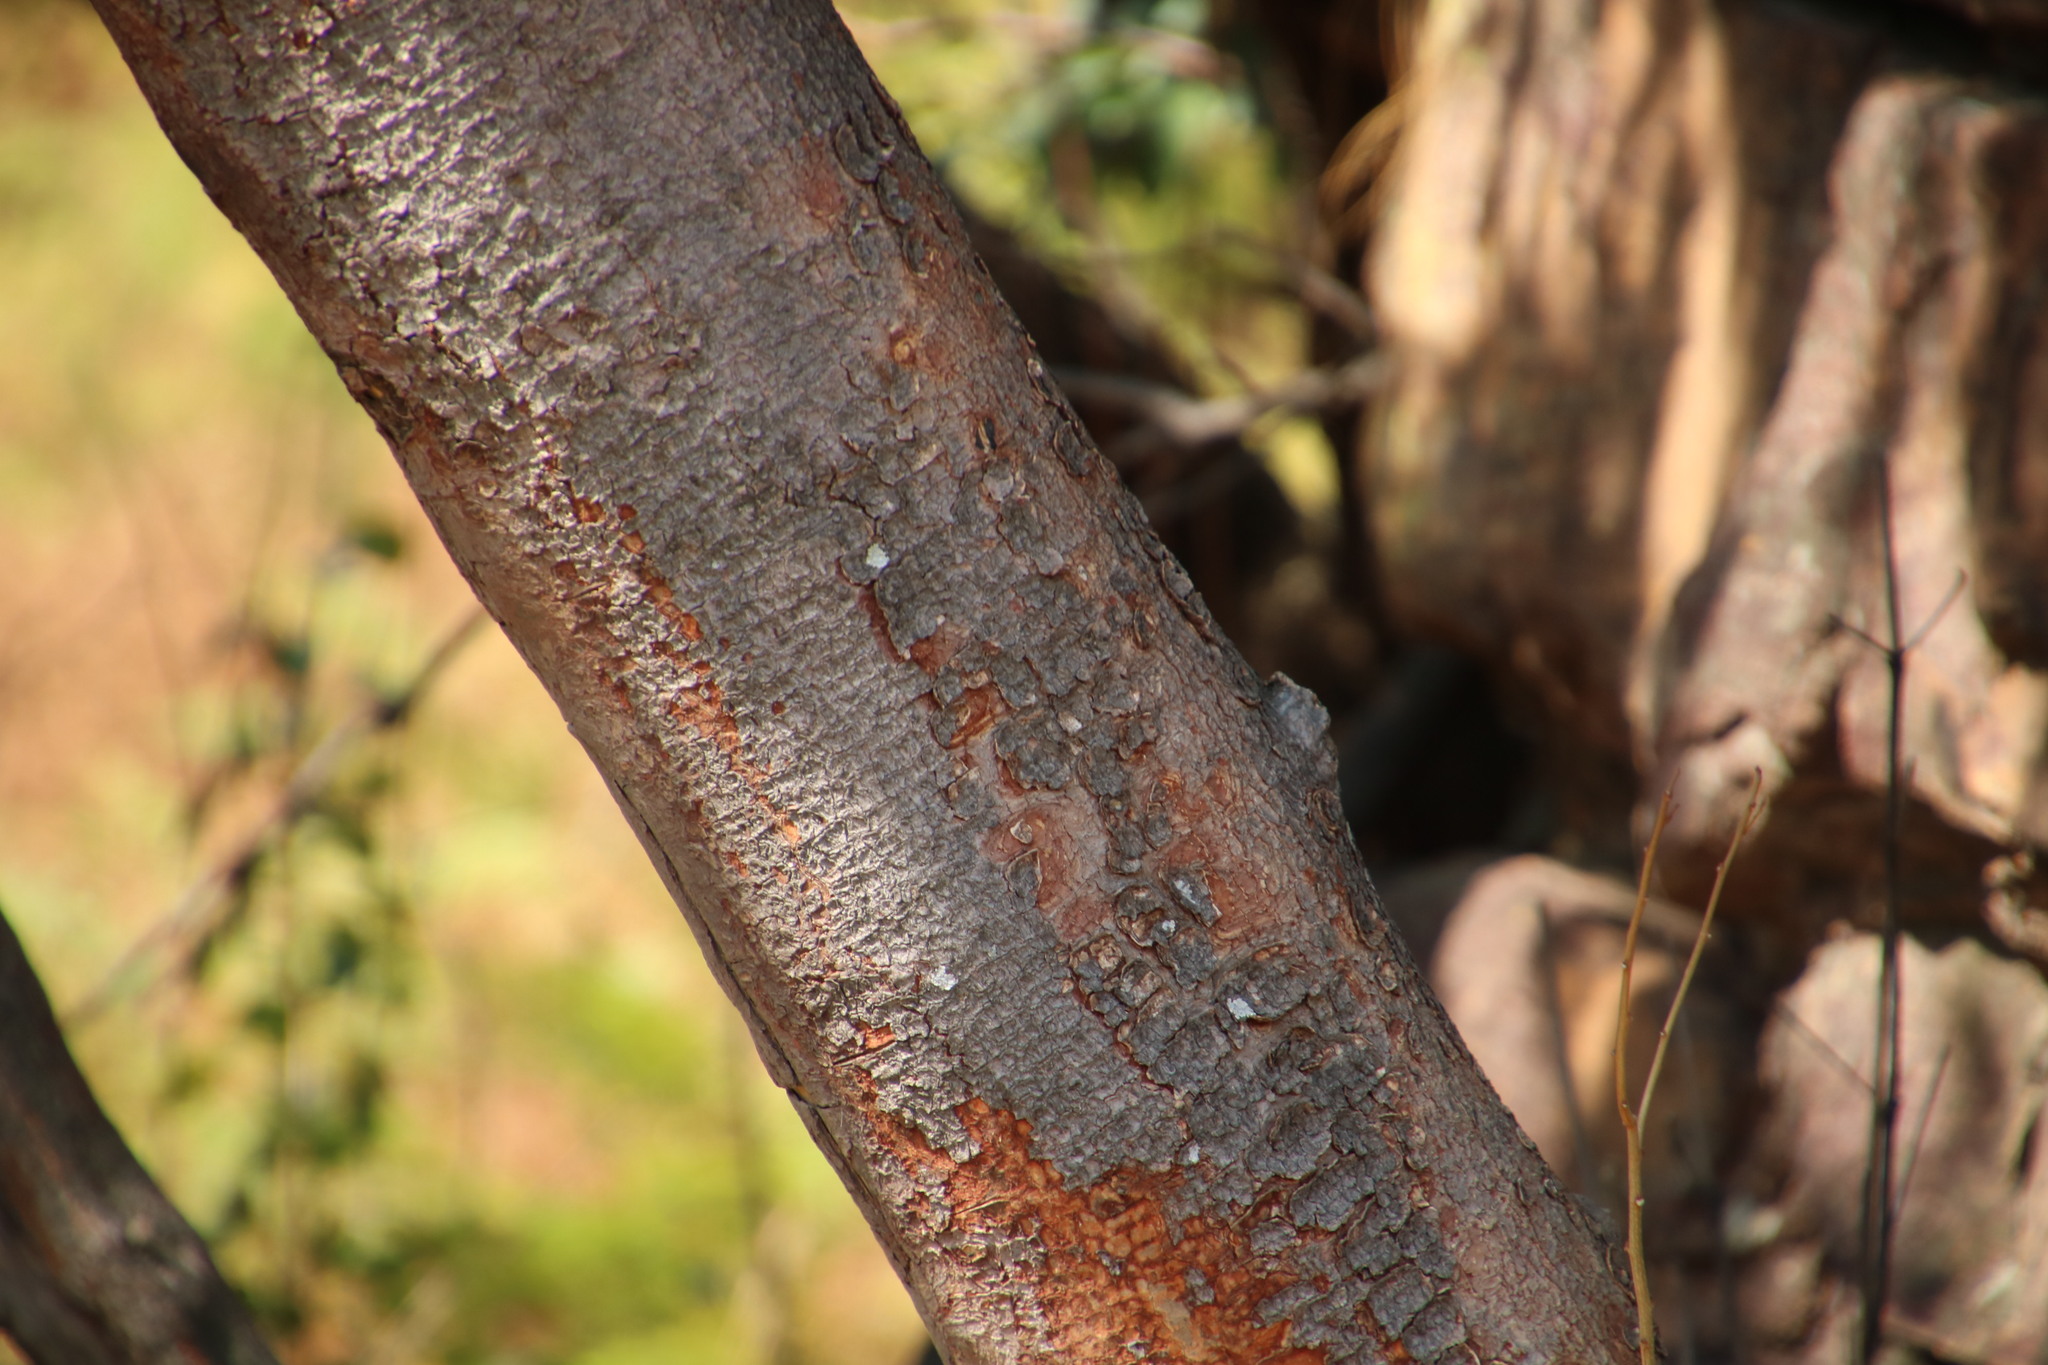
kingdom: Plantae
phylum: Tracheophyta
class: Magnoliopsida
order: Gentianales
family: Rubiaceae
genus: Rothmannia
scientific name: Rothmannia capensis
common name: Cape gardenia
